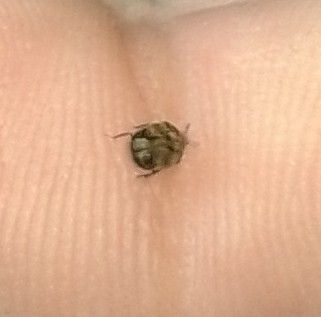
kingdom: Animalia
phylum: Arthropoda
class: Insecta
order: Coleoptera
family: Dermestidae
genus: Anthrenus
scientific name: Anthrenus verbasci
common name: Varied carpet beetle
